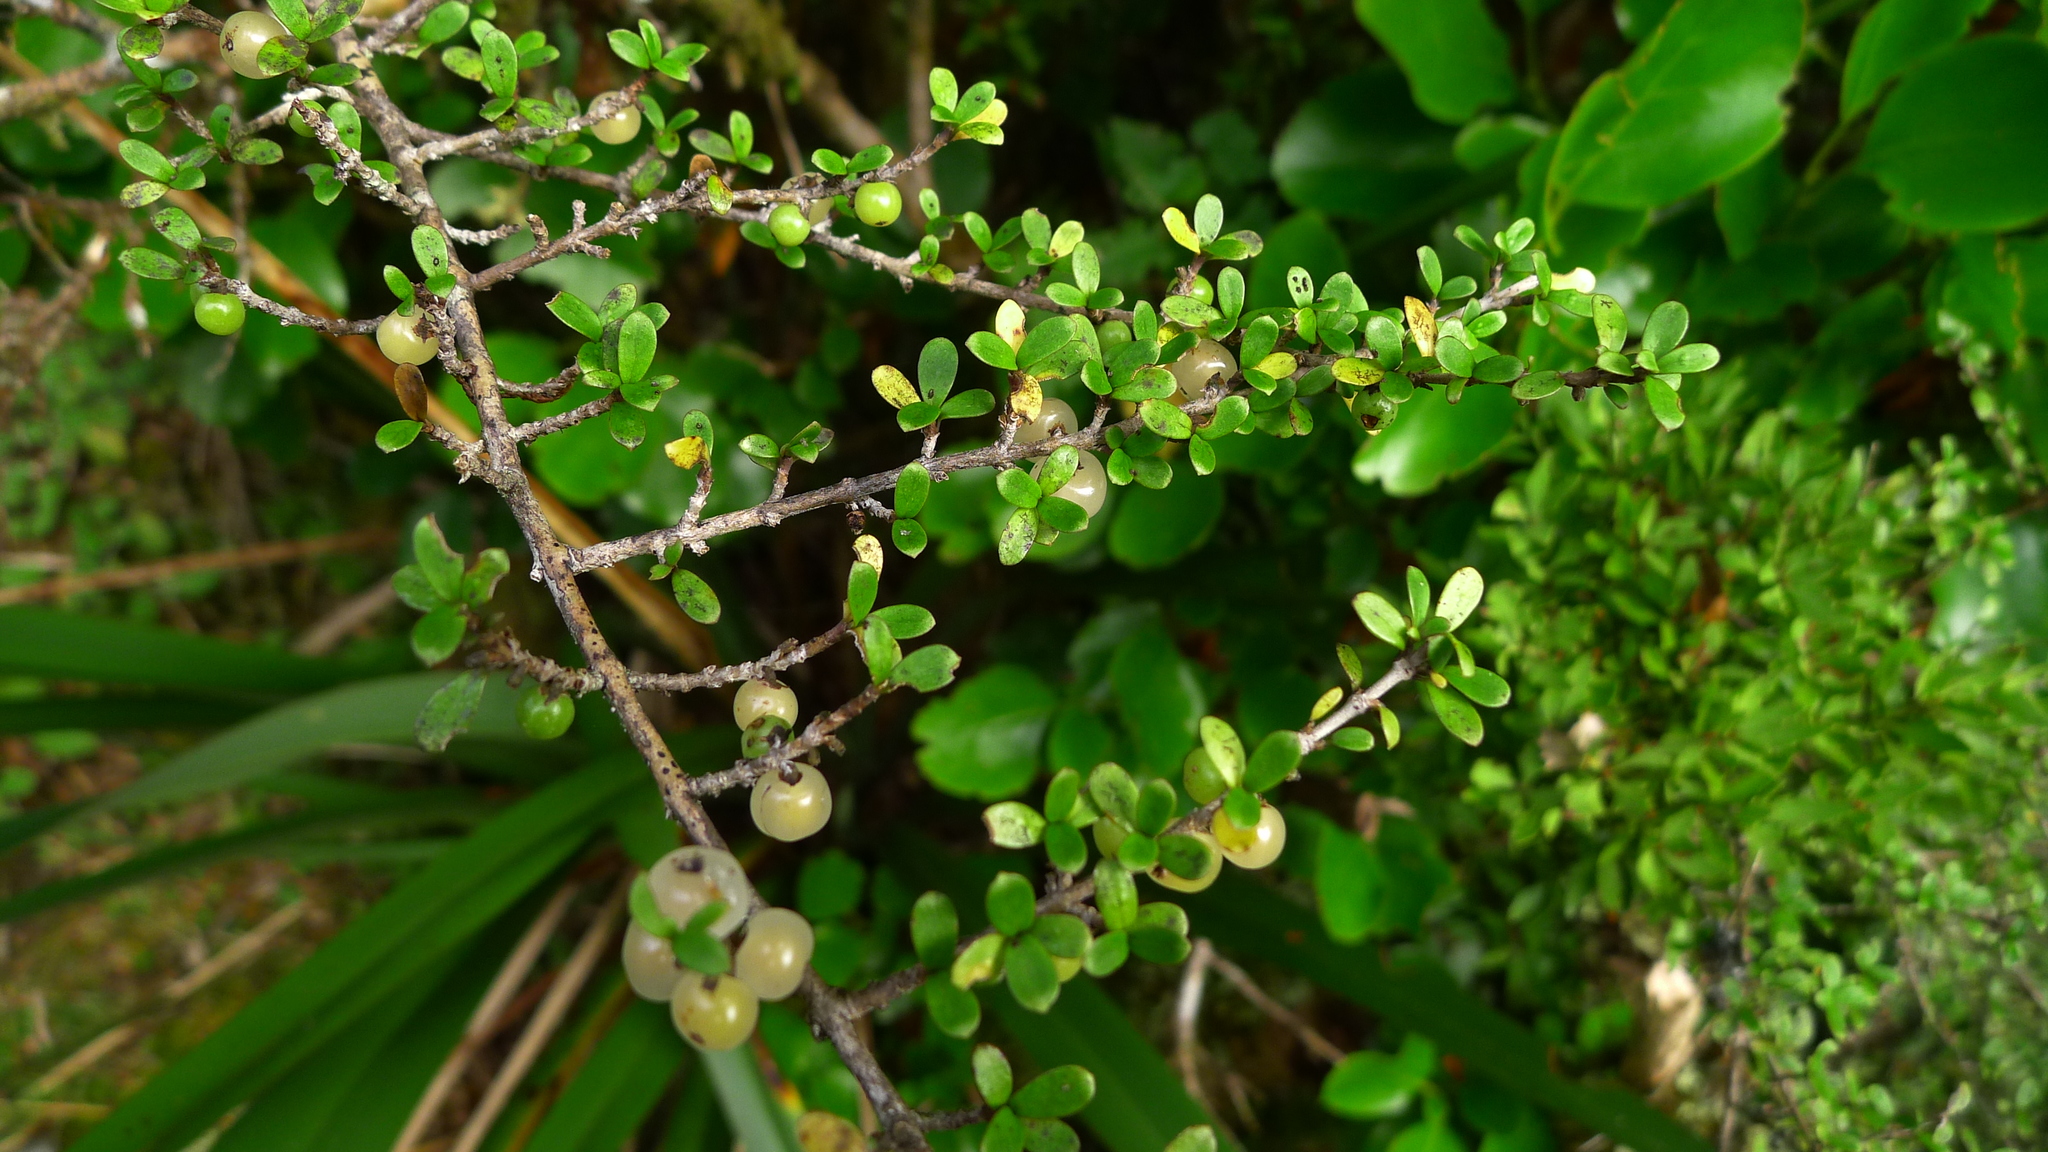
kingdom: Plantae
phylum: Tracheophyta
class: Magnoliopsida
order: Gentianales
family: Rubiaceae
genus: Coprosma
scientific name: Coprosma dumosa
